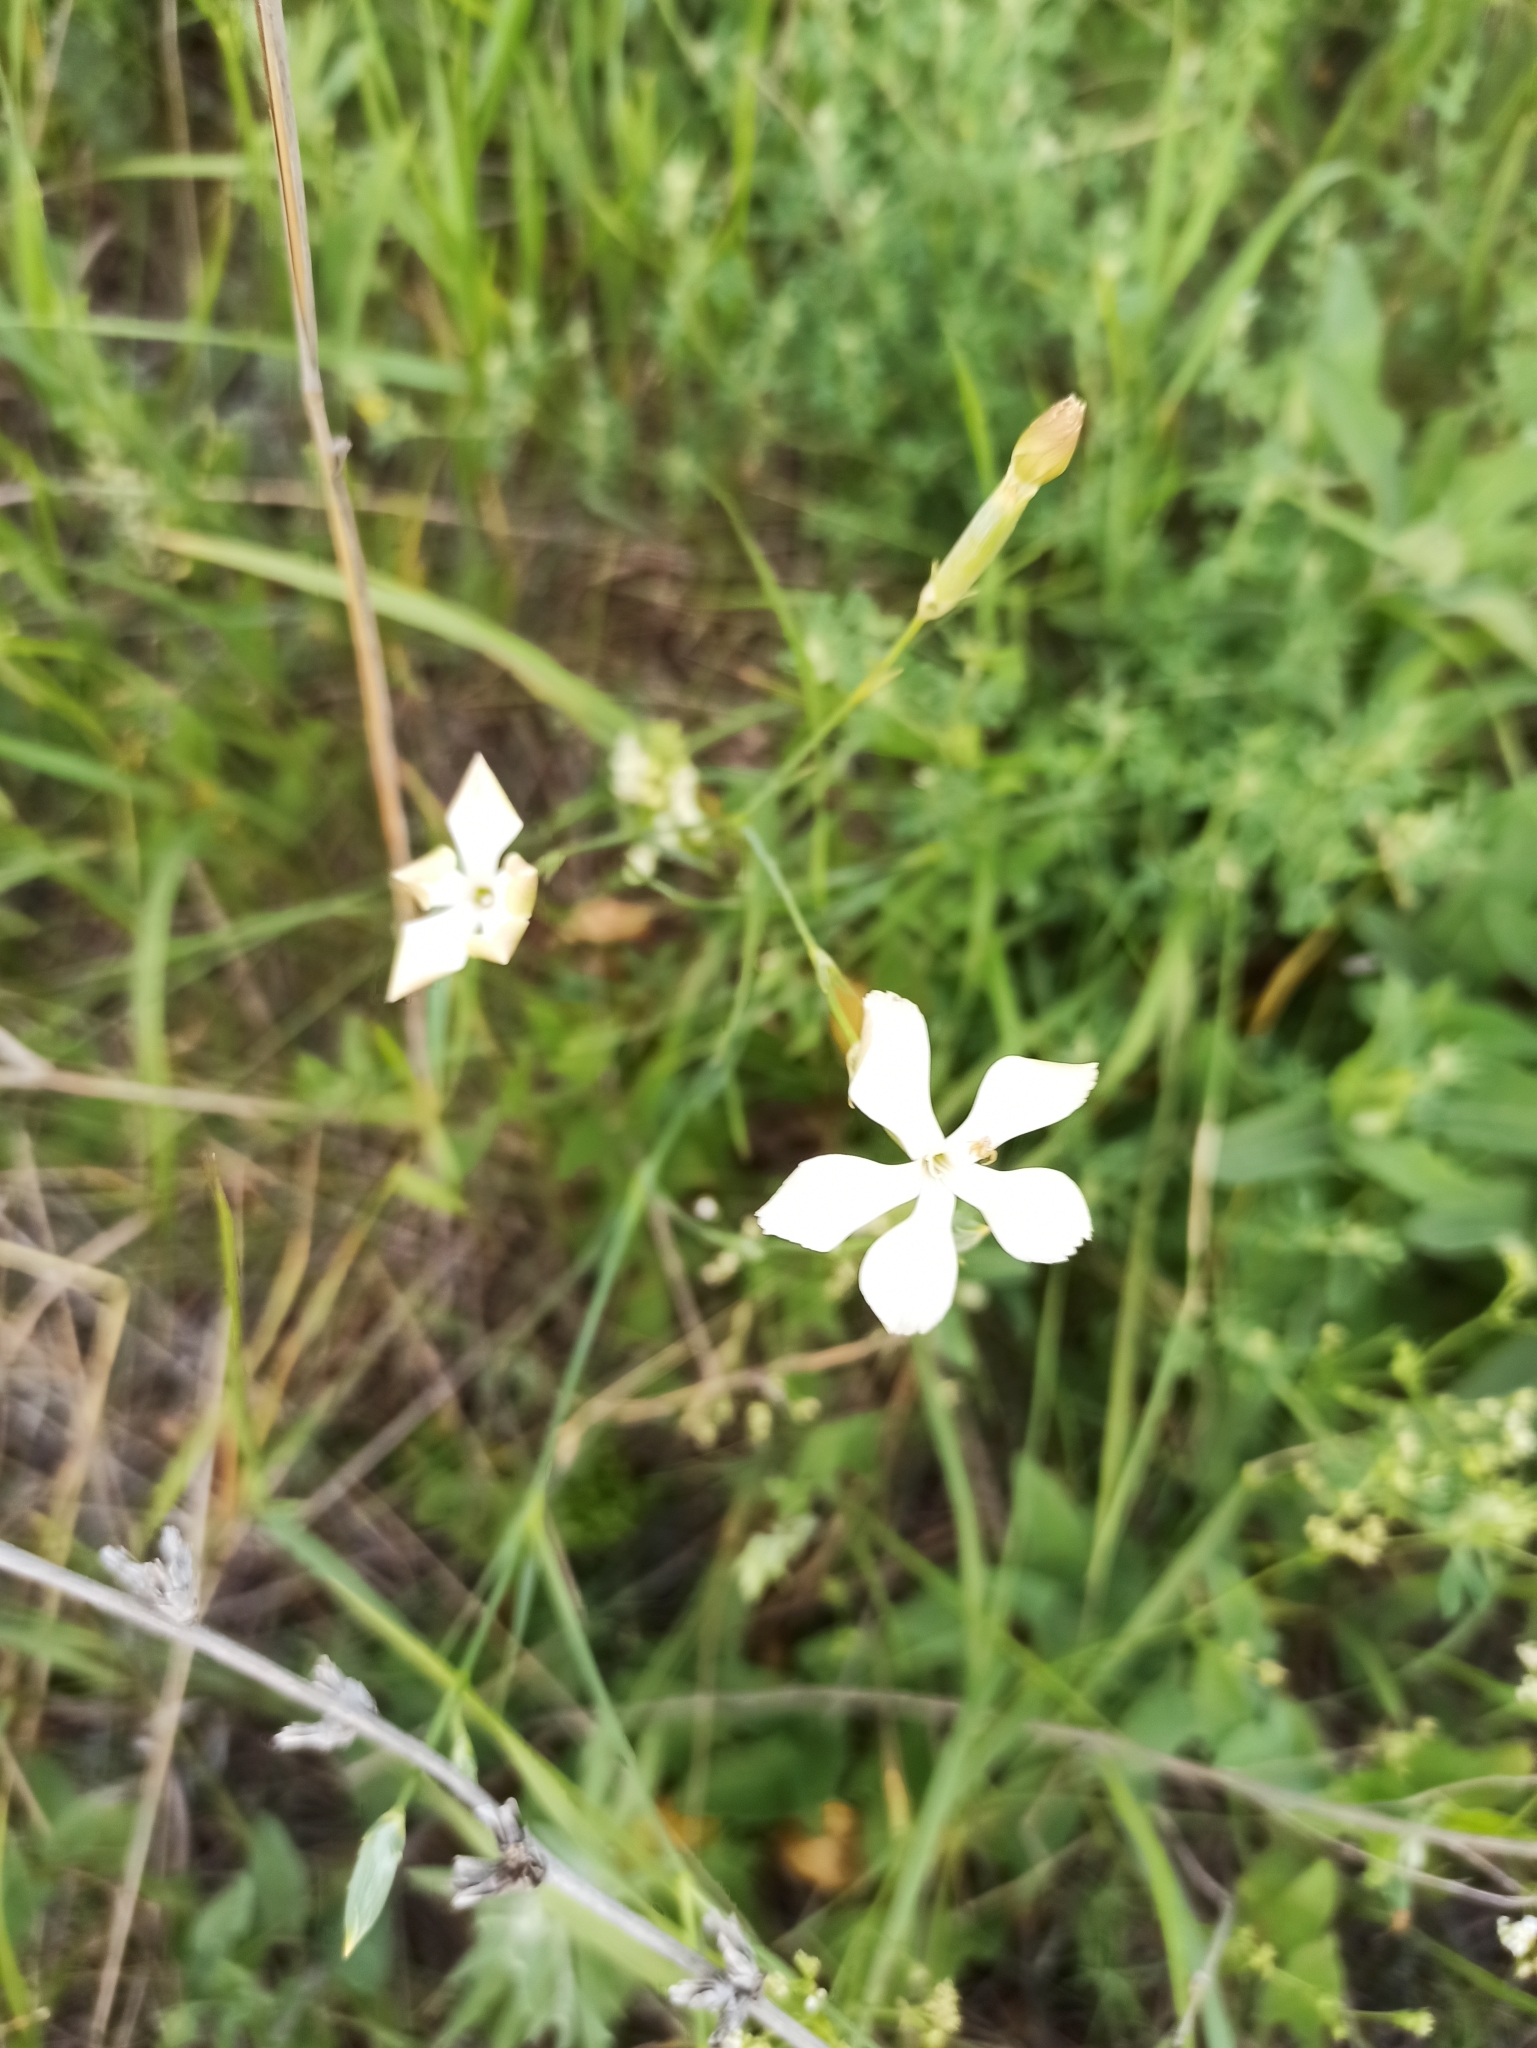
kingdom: Plantae
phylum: Tracheophyta
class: Magnoliopsida
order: Caryophyllales
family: Caryophyllaceae
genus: Dianthus
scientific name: Dianthus lanceolatus
